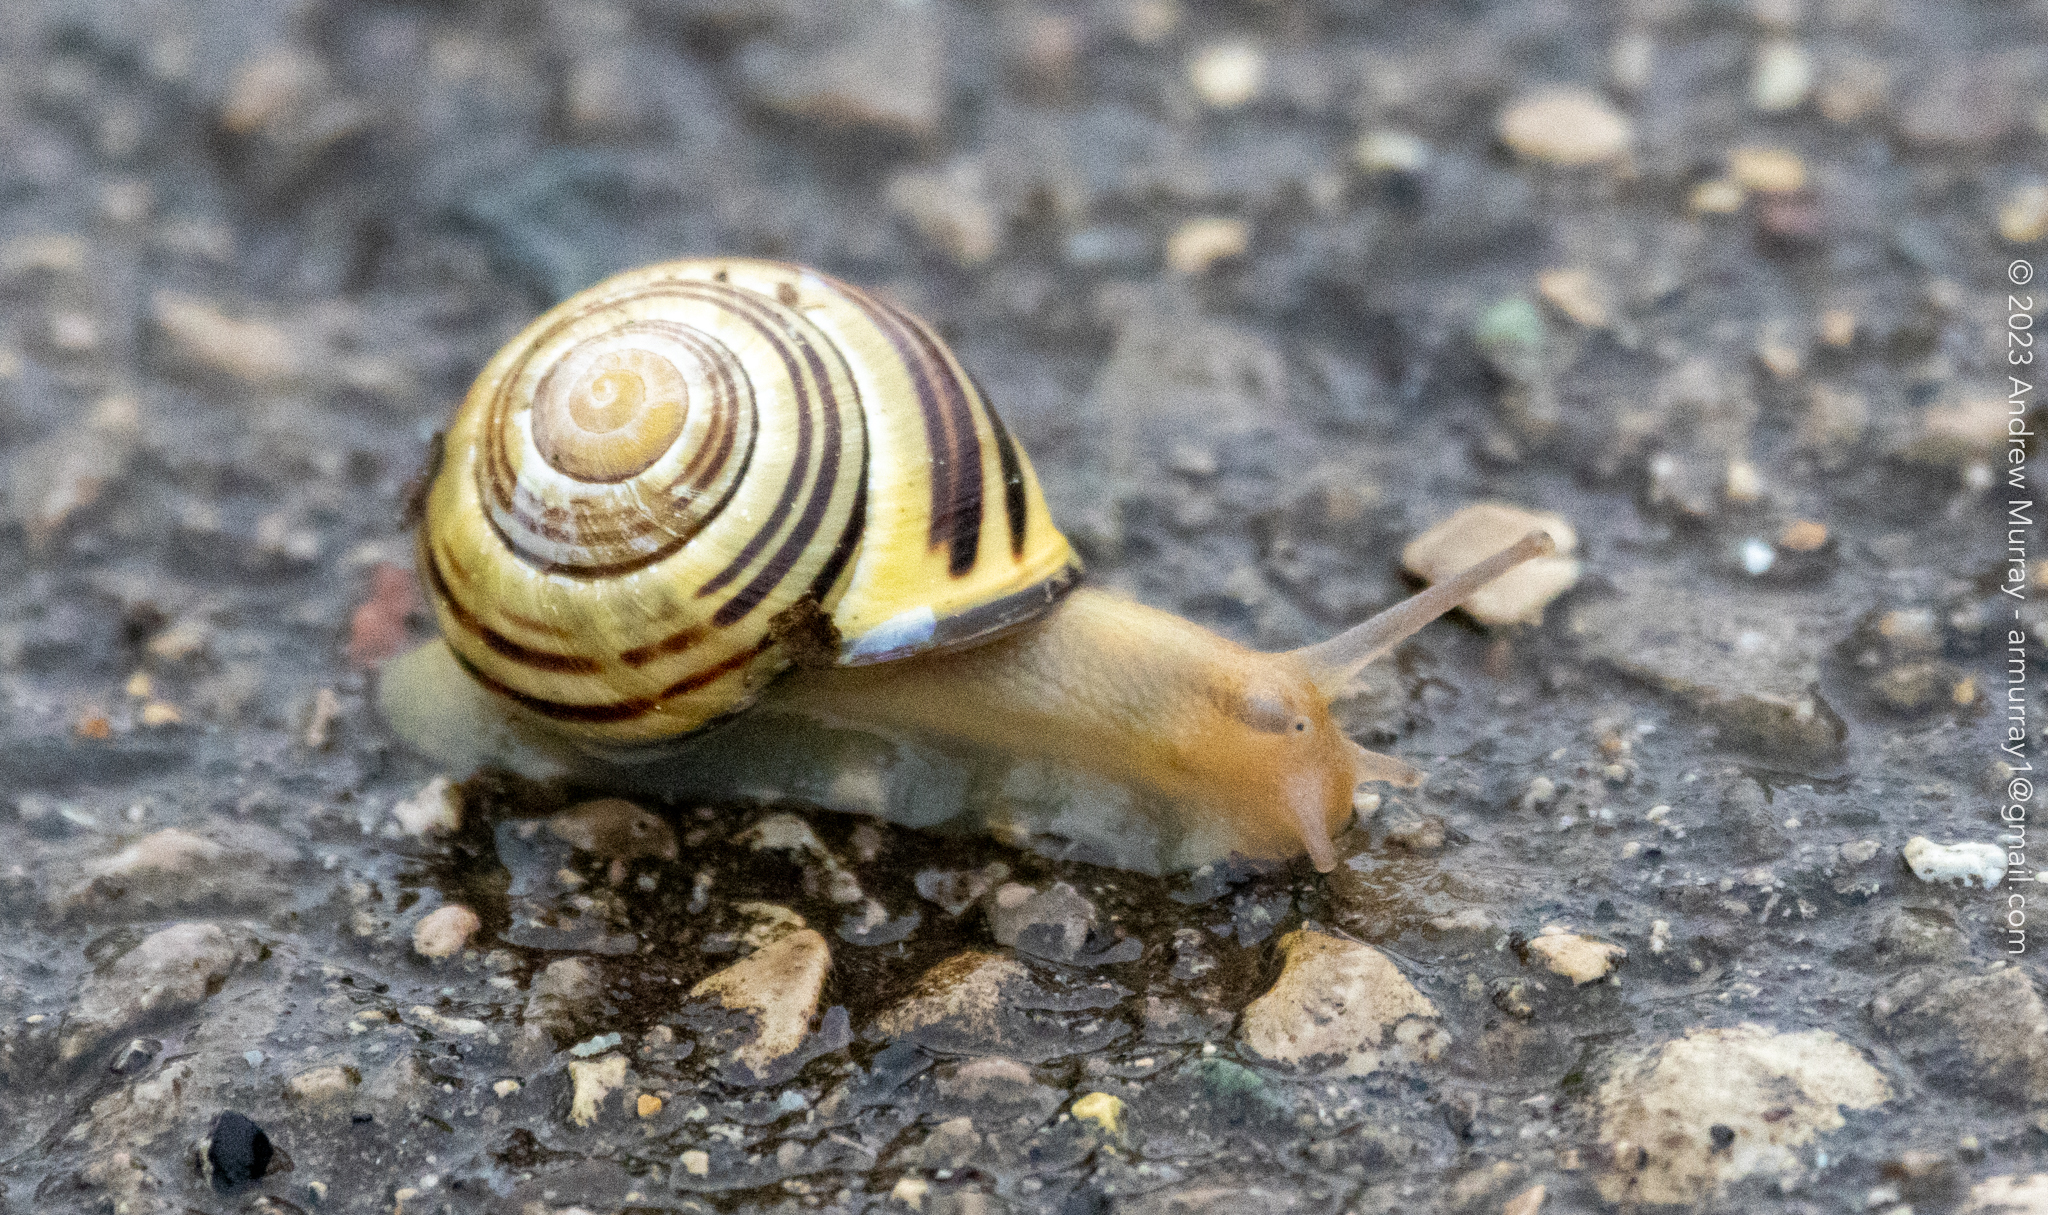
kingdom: Animalia
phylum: Mollusca
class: Gastropoda
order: Stylommatophora
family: Helicidae
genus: Cepaea
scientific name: Cepaea nemoralis
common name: Grovesnail
